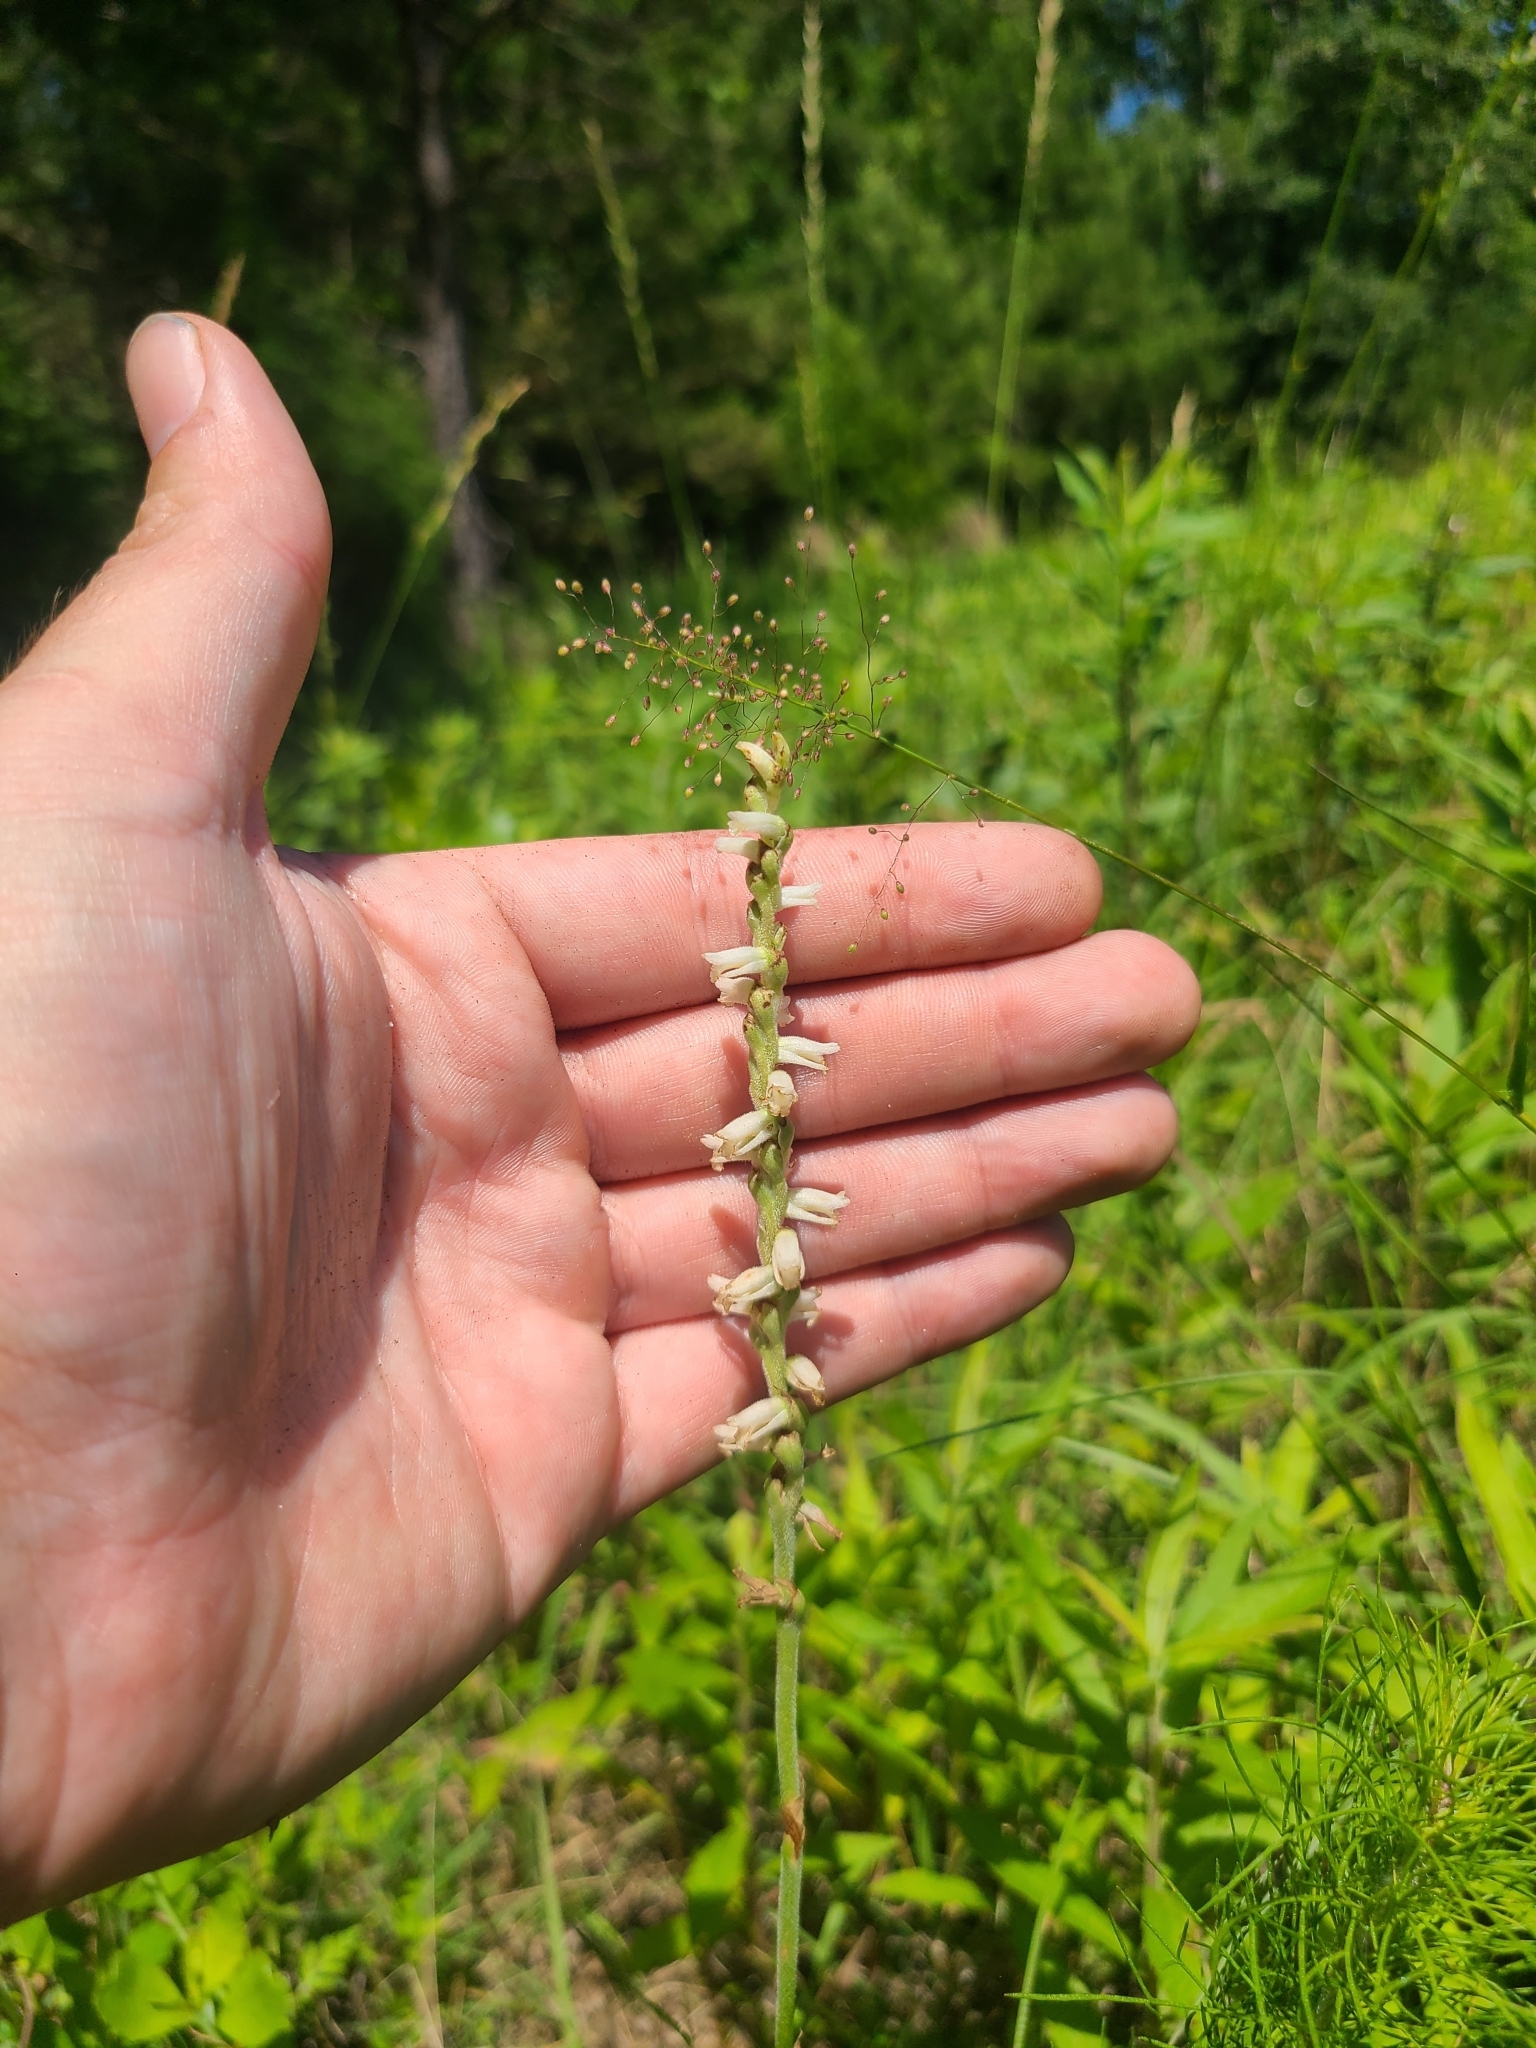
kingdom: Plantae
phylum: Tracheophyta
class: Liliopsida
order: Asparagales
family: Orchidaceae
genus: Spiranthes
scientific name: Spiranthes vernalis
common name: Spring ladies'-tresses
